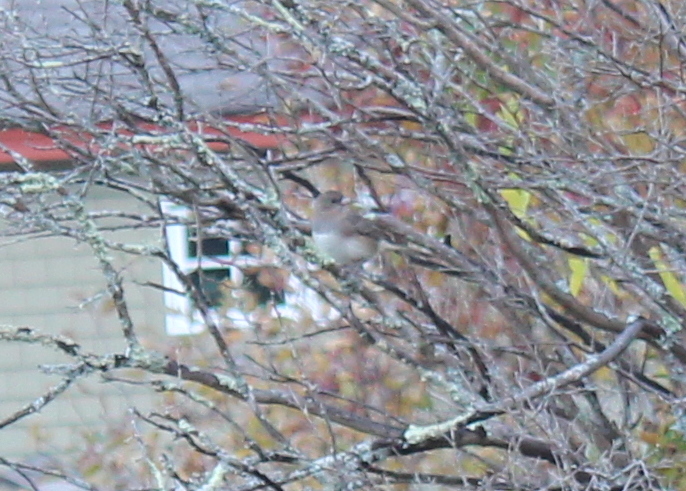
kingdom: Animalia
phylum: Chordata
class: Aves
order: Passeriformes
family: Passerellidae
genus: Junco
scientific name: Junco hyemalis
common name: Dark-eyed junco
